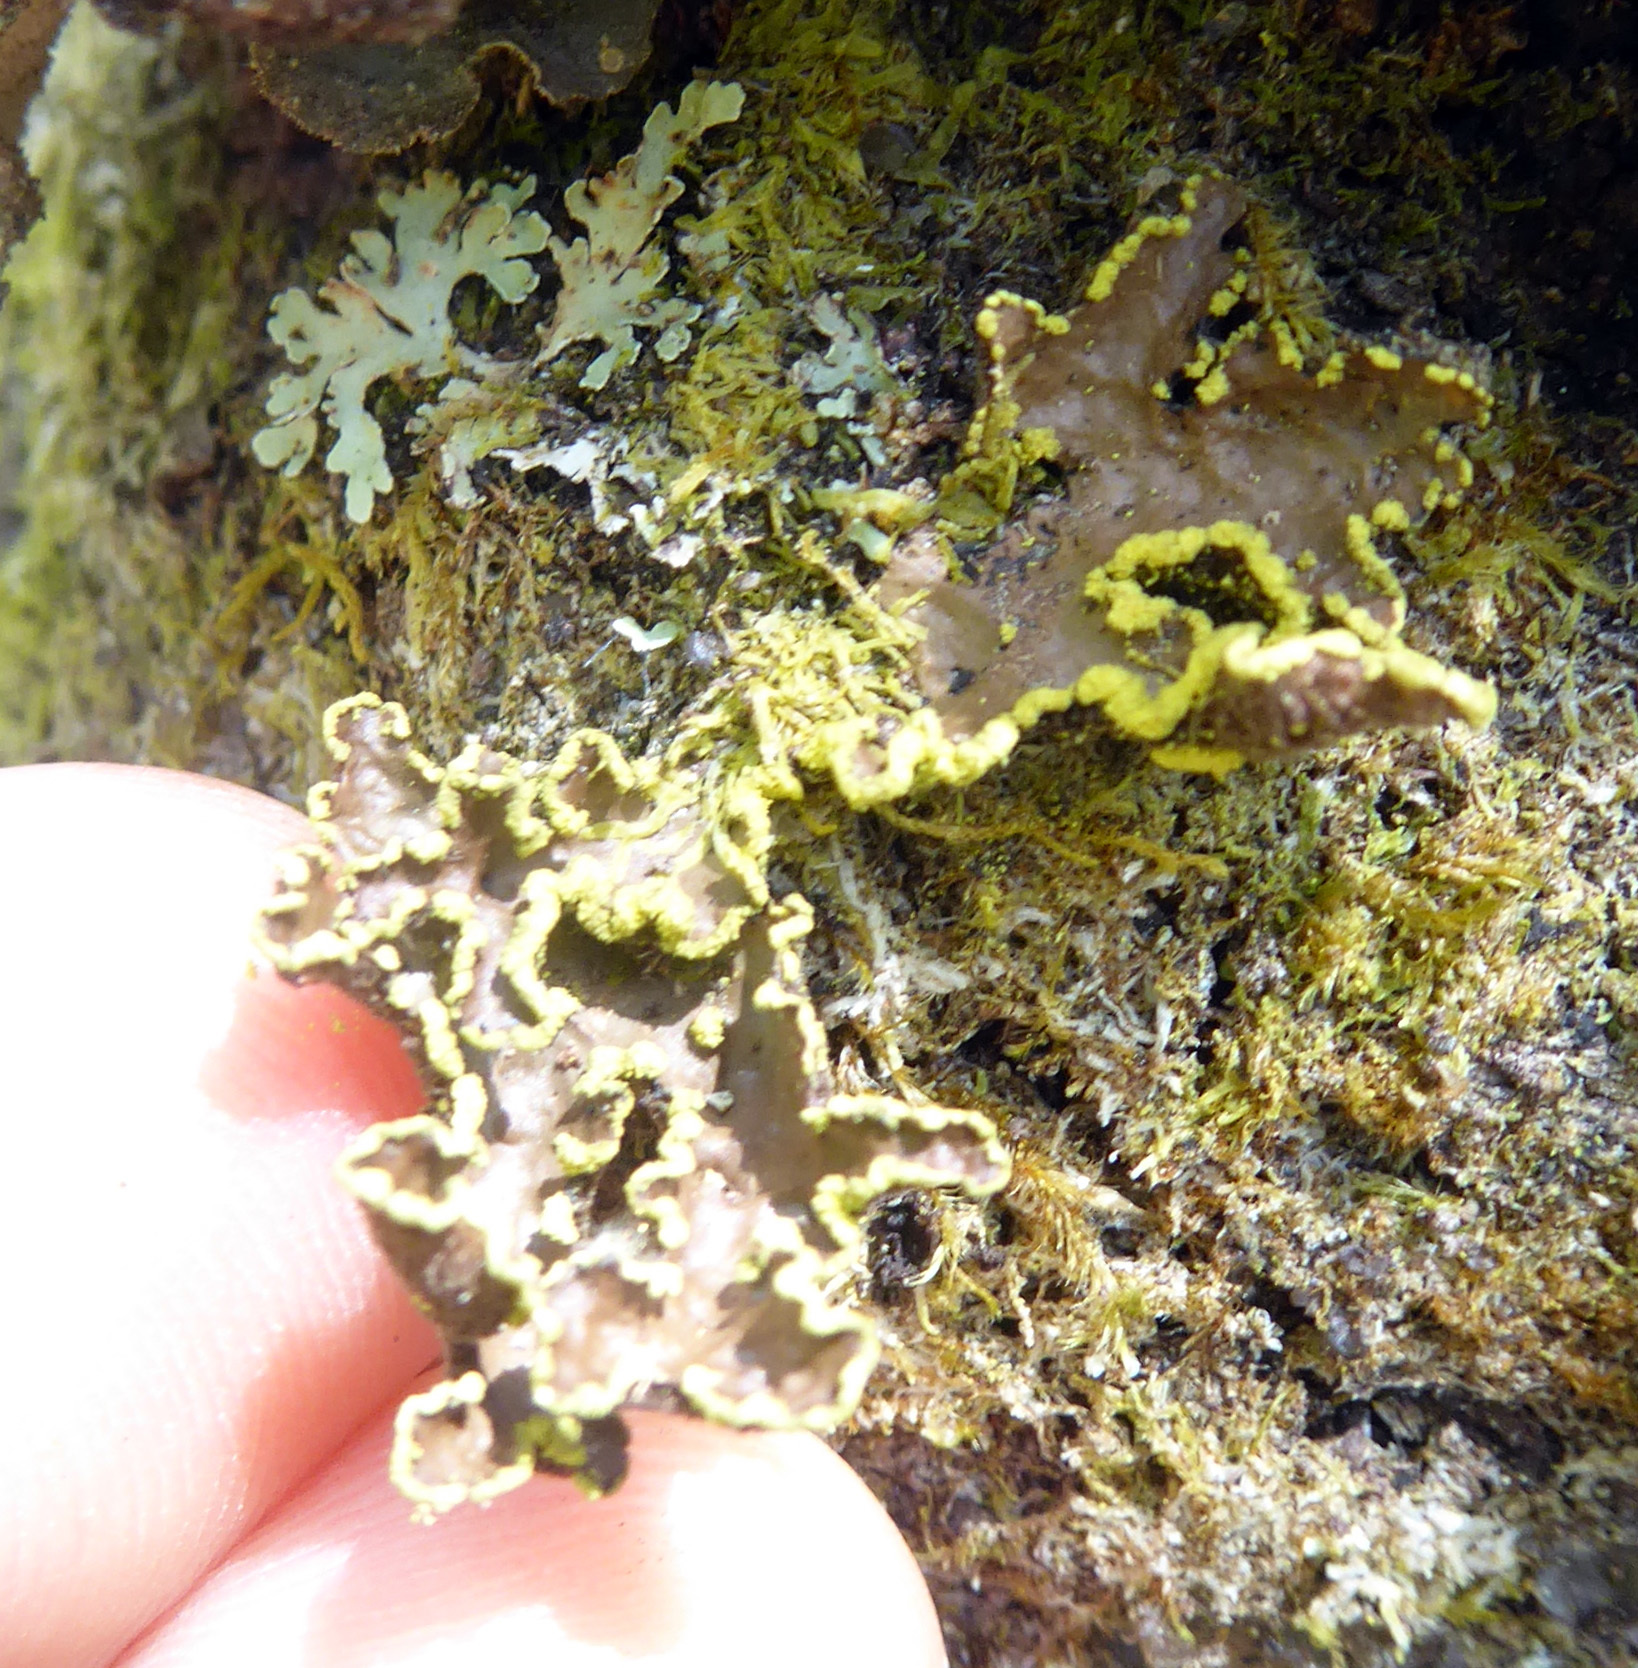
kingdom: Fungi
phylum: Ascomycota
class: Lecanoromycetes
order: Peltigerales
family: Lobariaceae
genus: Pseudocyphellaria
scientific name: Pseudocyphellaria crocata
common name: Golden specklebelly
